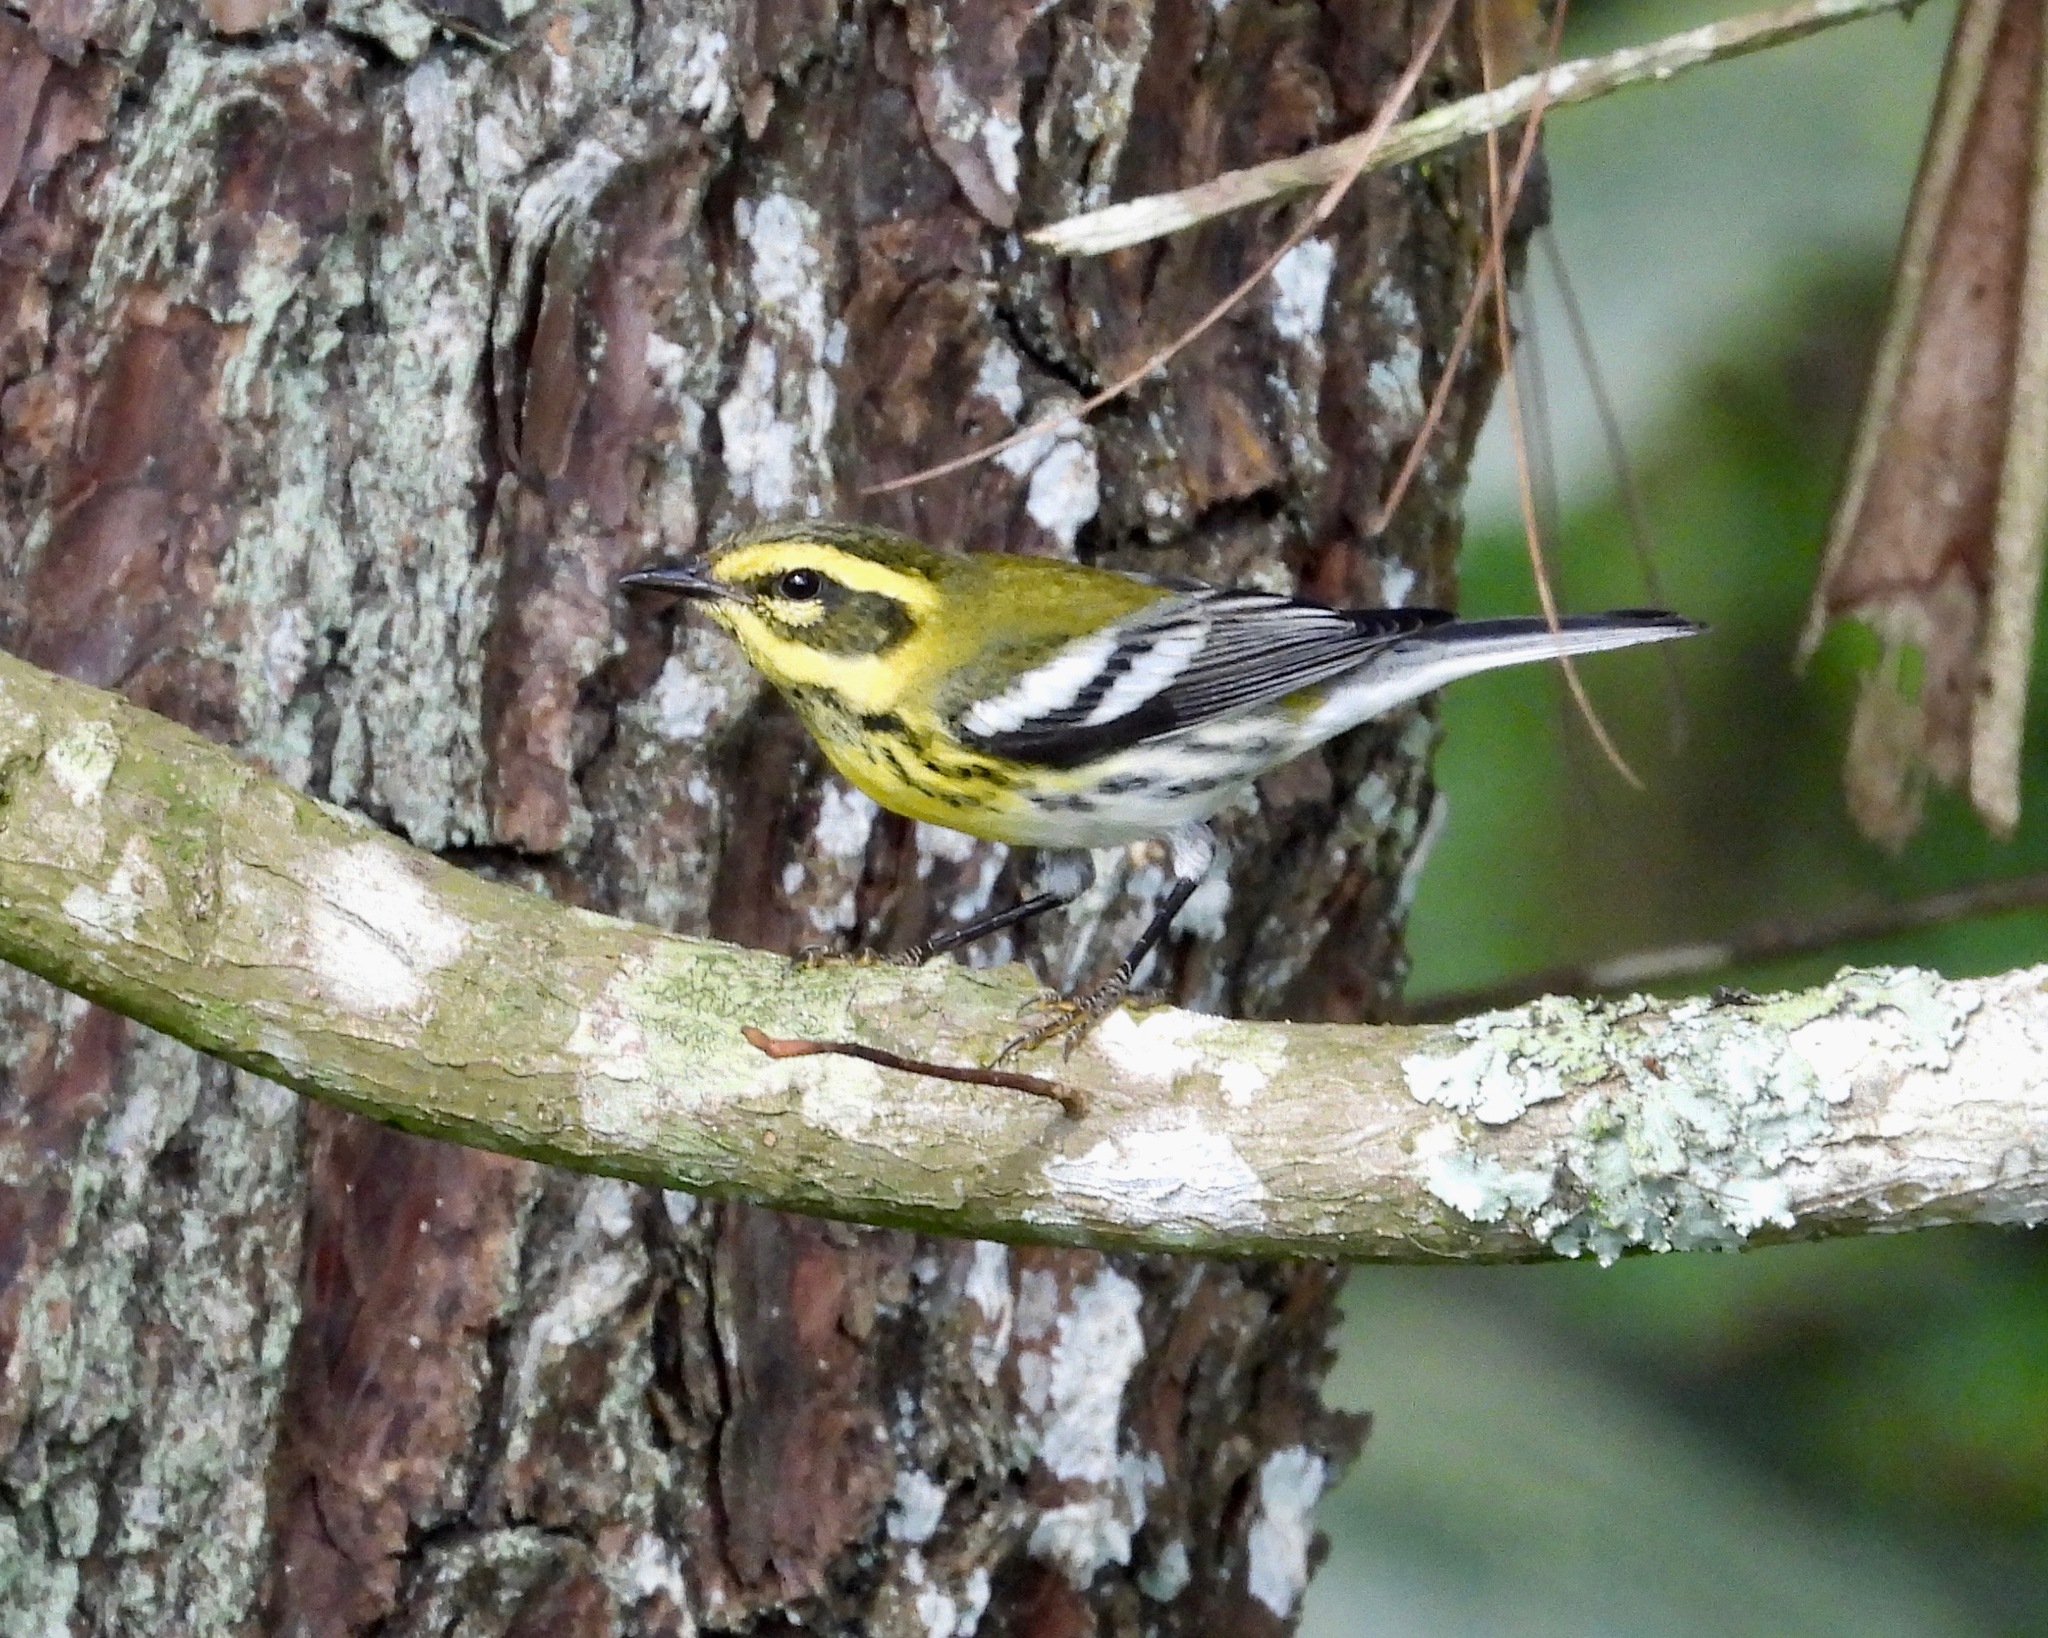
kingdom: Animalia
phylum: Chordata
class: Aves
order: Passeriformes
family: Parulidae
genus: Setophaga
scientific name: Setophaga townsendi
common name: Townsend's warbler
